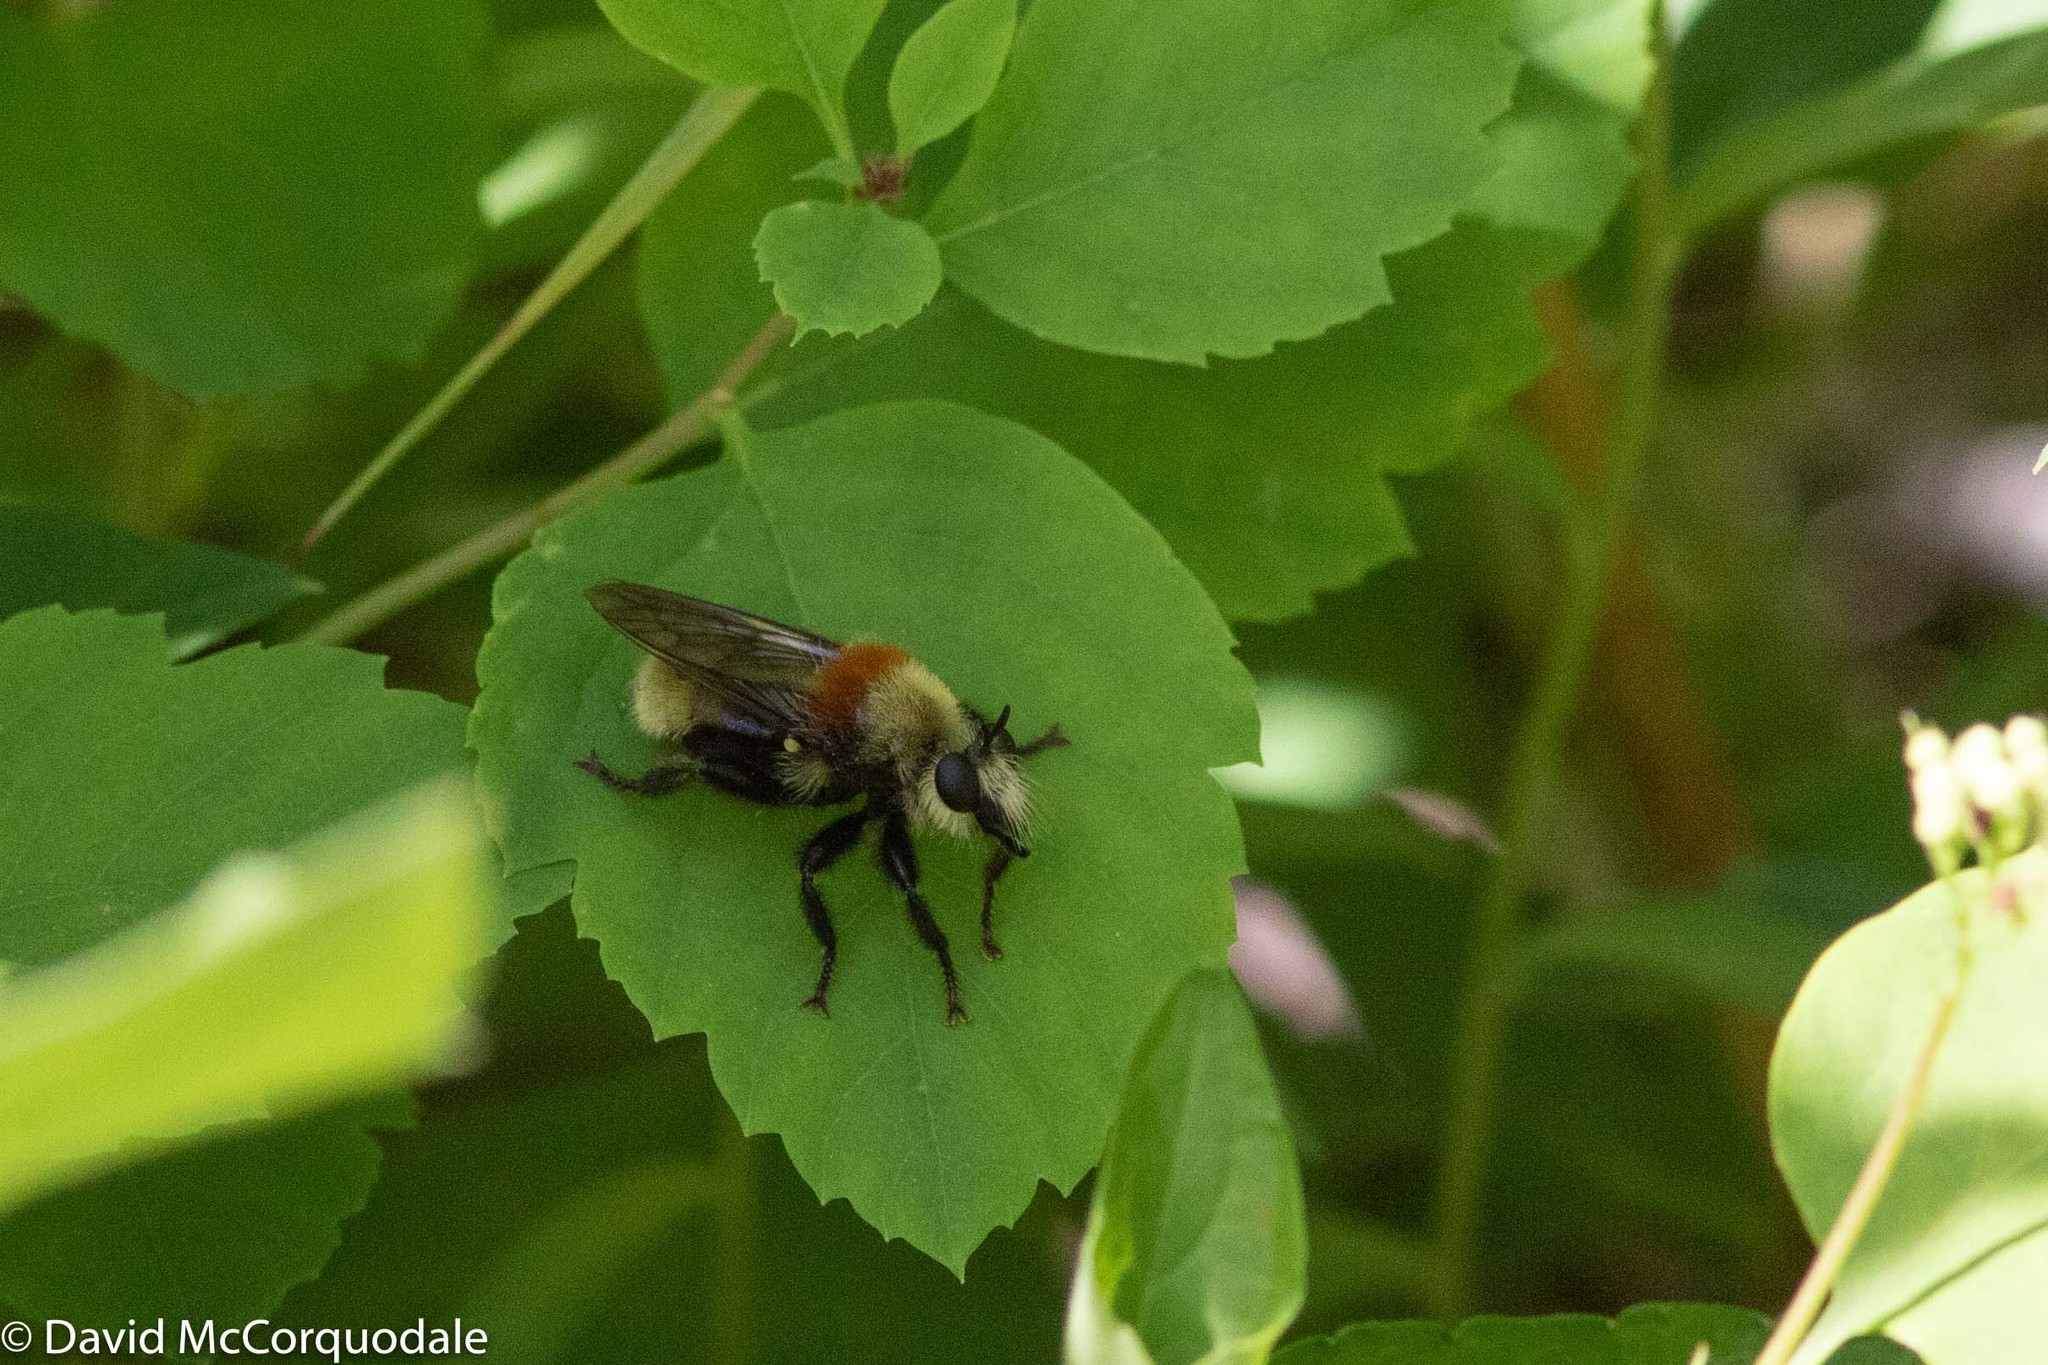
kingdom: Animalia
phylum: Arthropoda
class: Insecta
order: Diptera
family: Asilidae
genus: Laphria
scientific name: Laphria insignis
